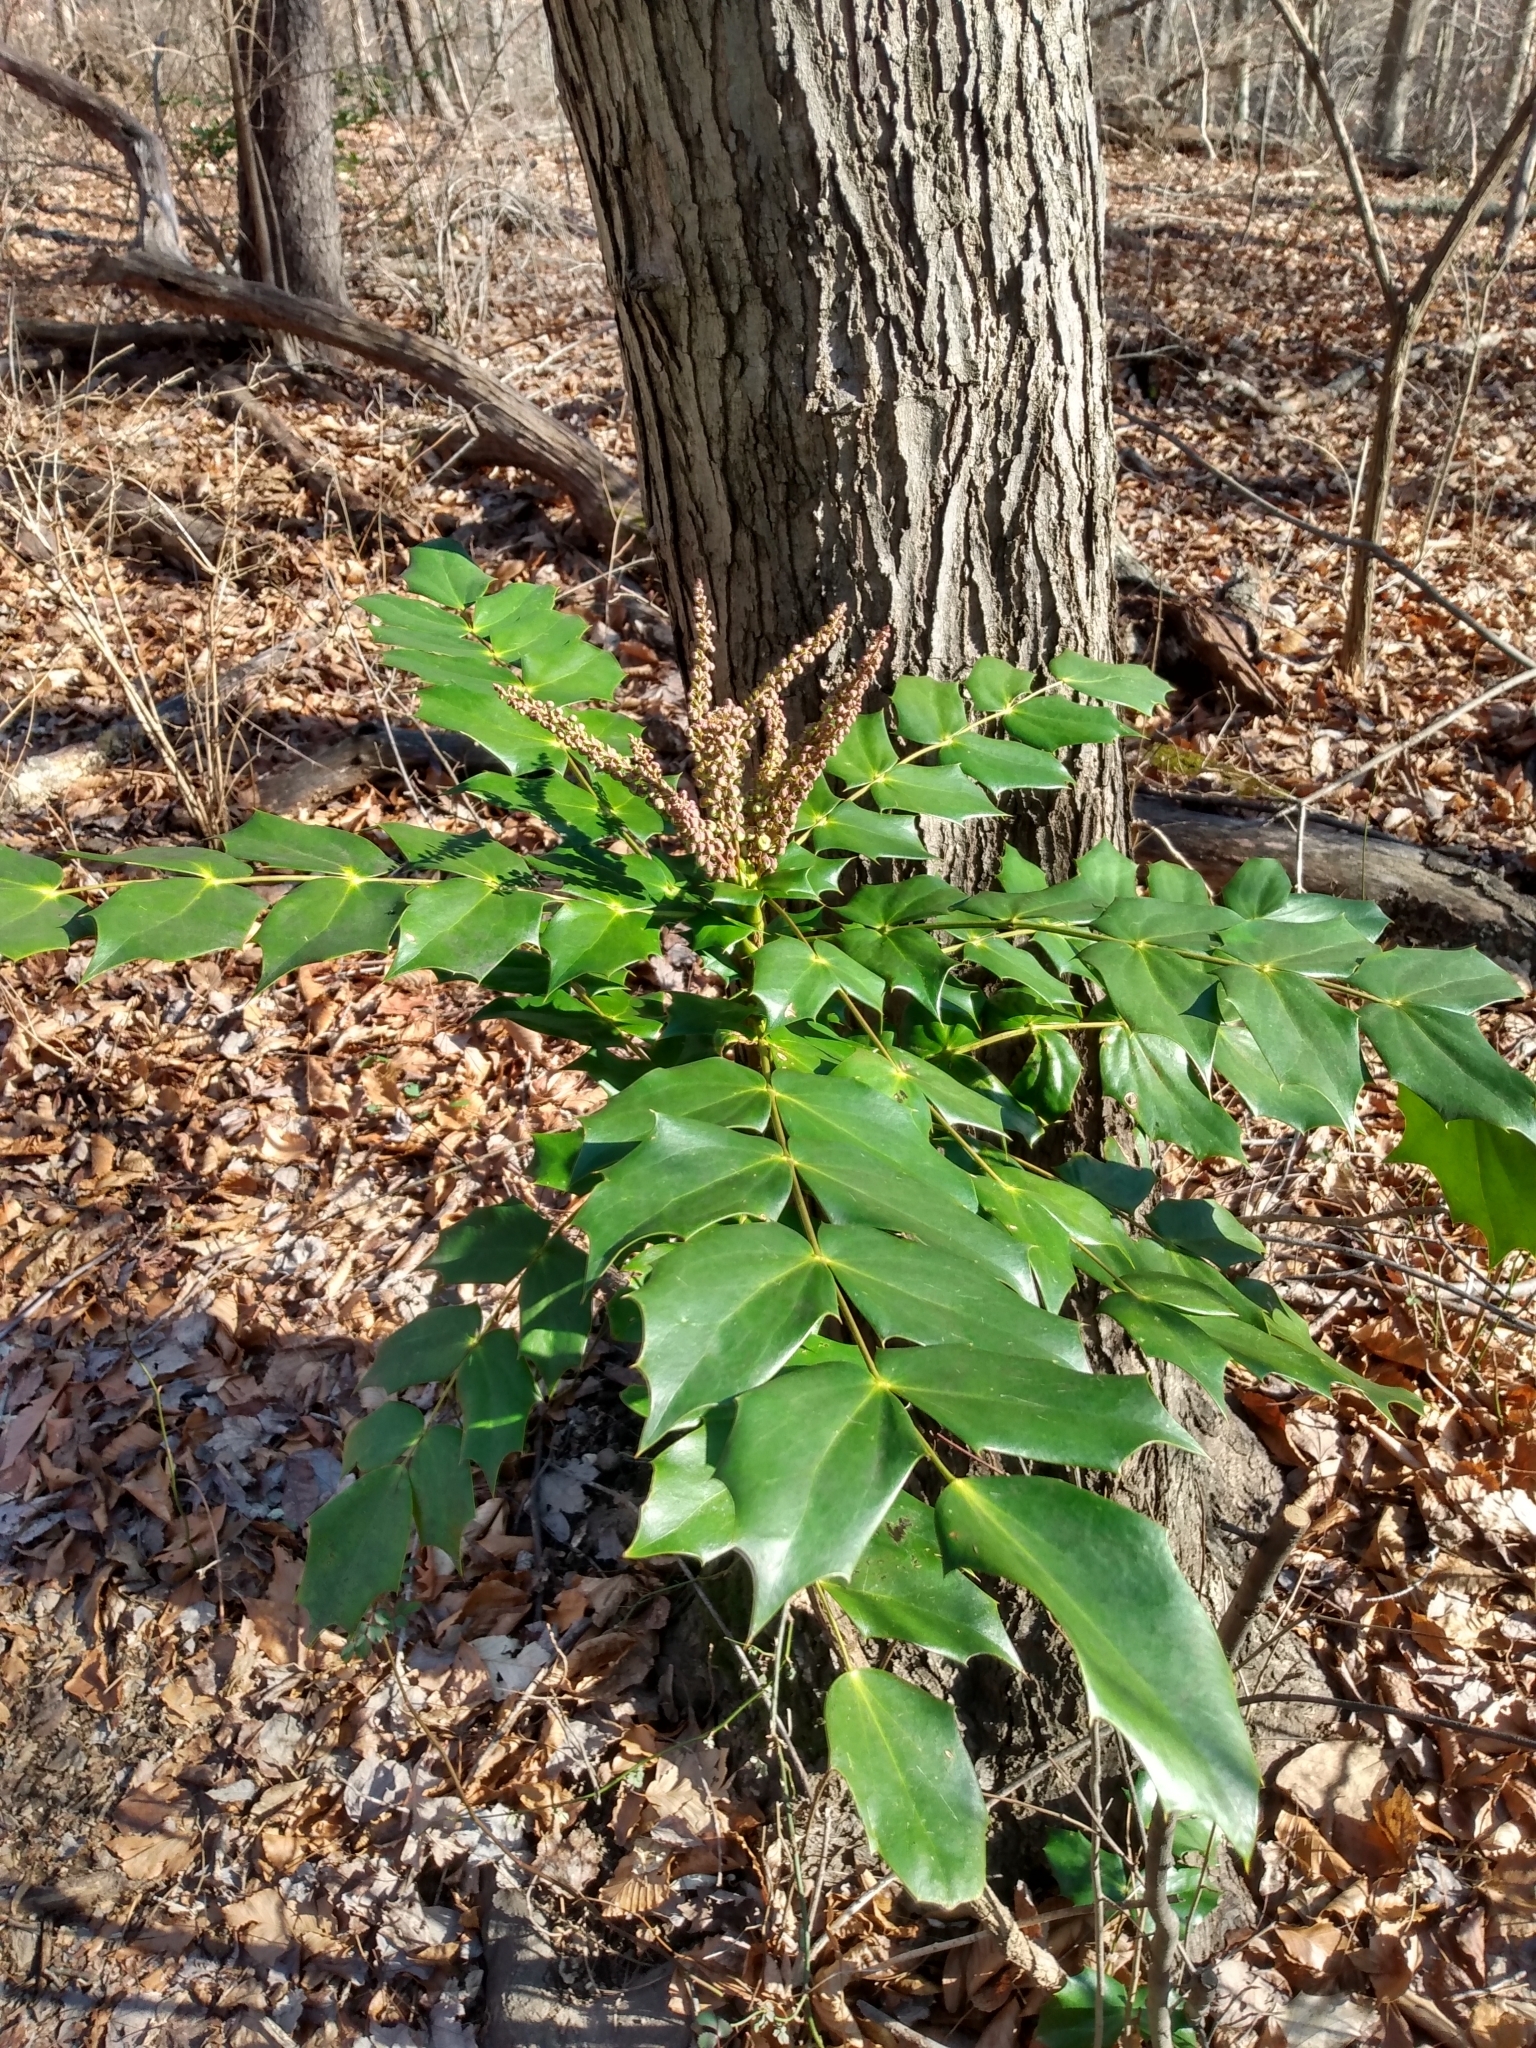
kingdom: Plantae
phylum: Tracheophyta
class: Magnoliopsida
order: Ranunculales
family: Berberidaceae
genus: Mahonia
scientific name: Mahonia bealei
